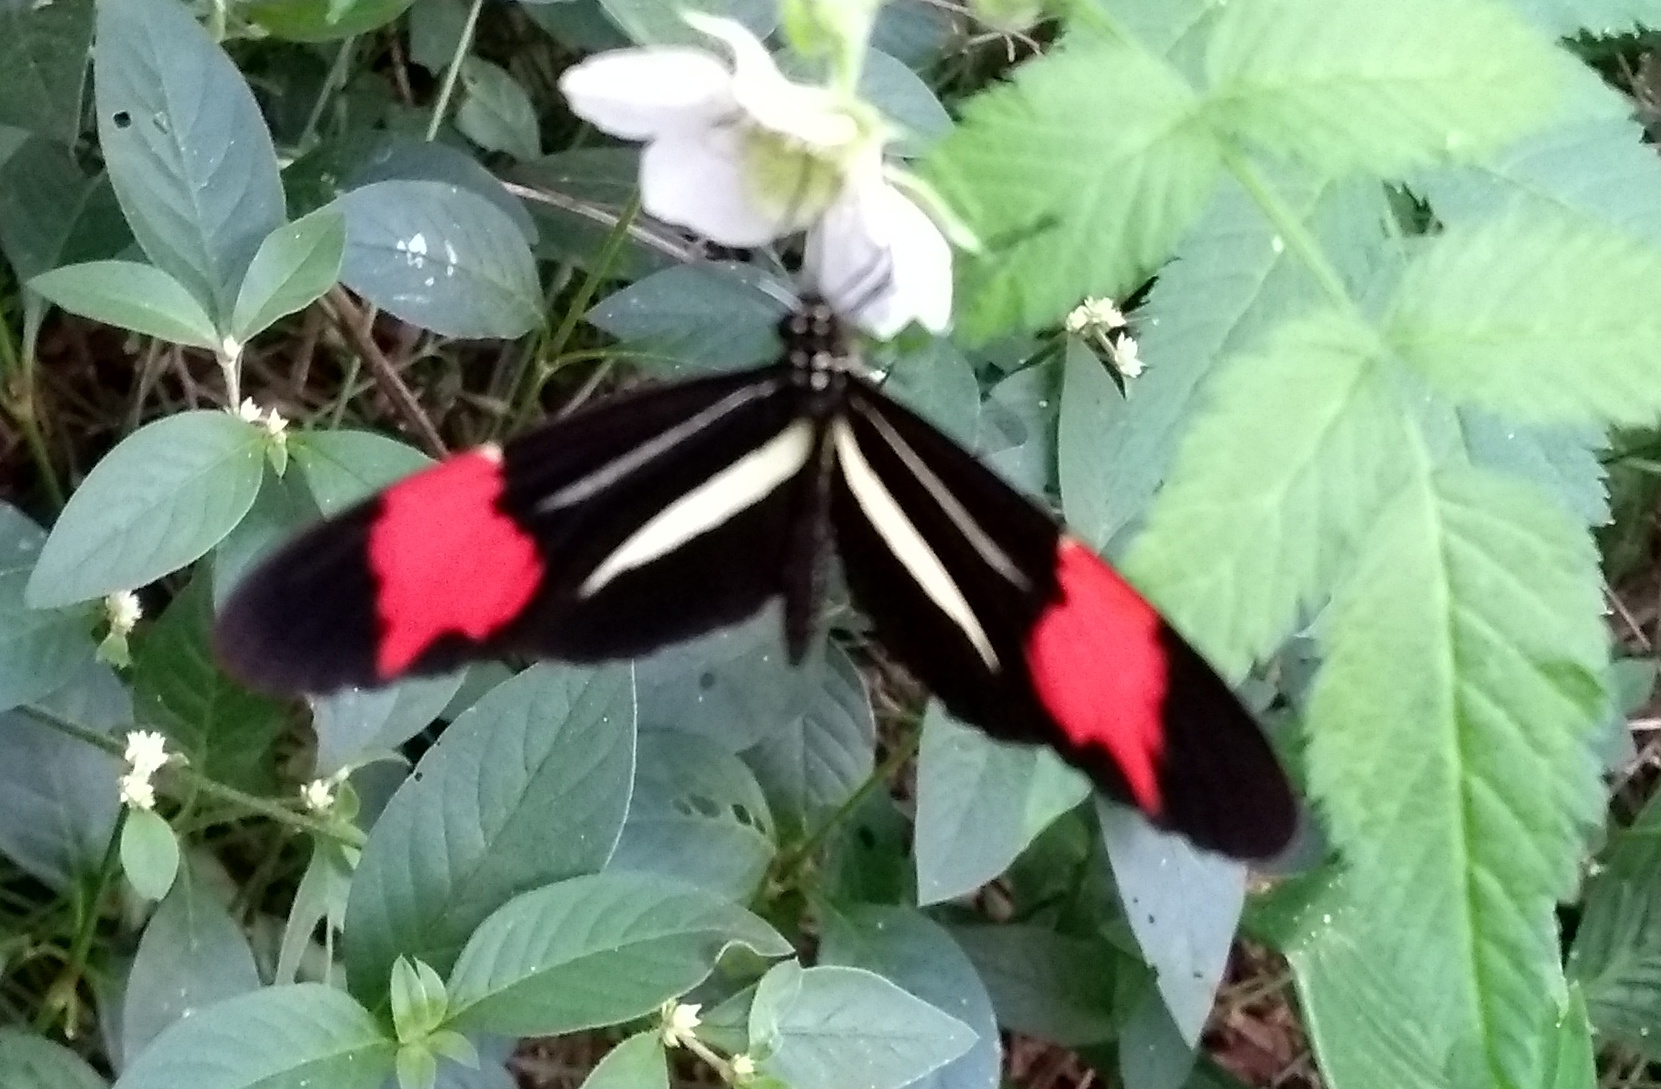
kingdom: Animalia
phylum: Arthropoda
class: Insecta
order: Lepidoptera
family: Nymphalidae
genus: Heliconius
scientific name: Heliconius erato
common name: Common patch longwing
